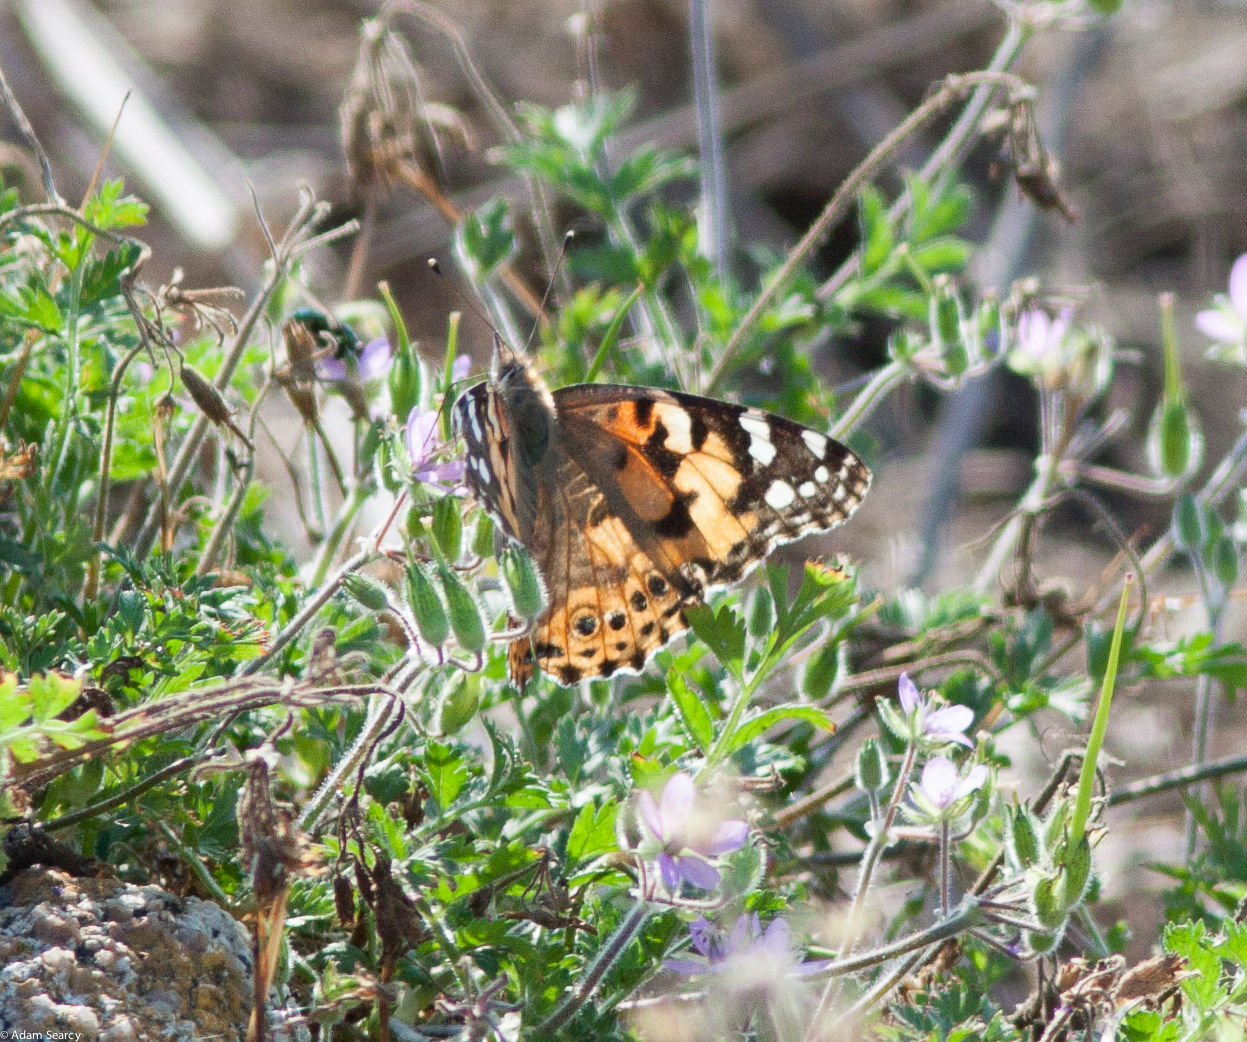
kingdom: Animalia
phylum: Arthropoda
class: Insecta
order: Lepidoptera
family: Nymphalidae
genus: Vanessa
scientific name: Vanessa cardui
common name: Painted lady
